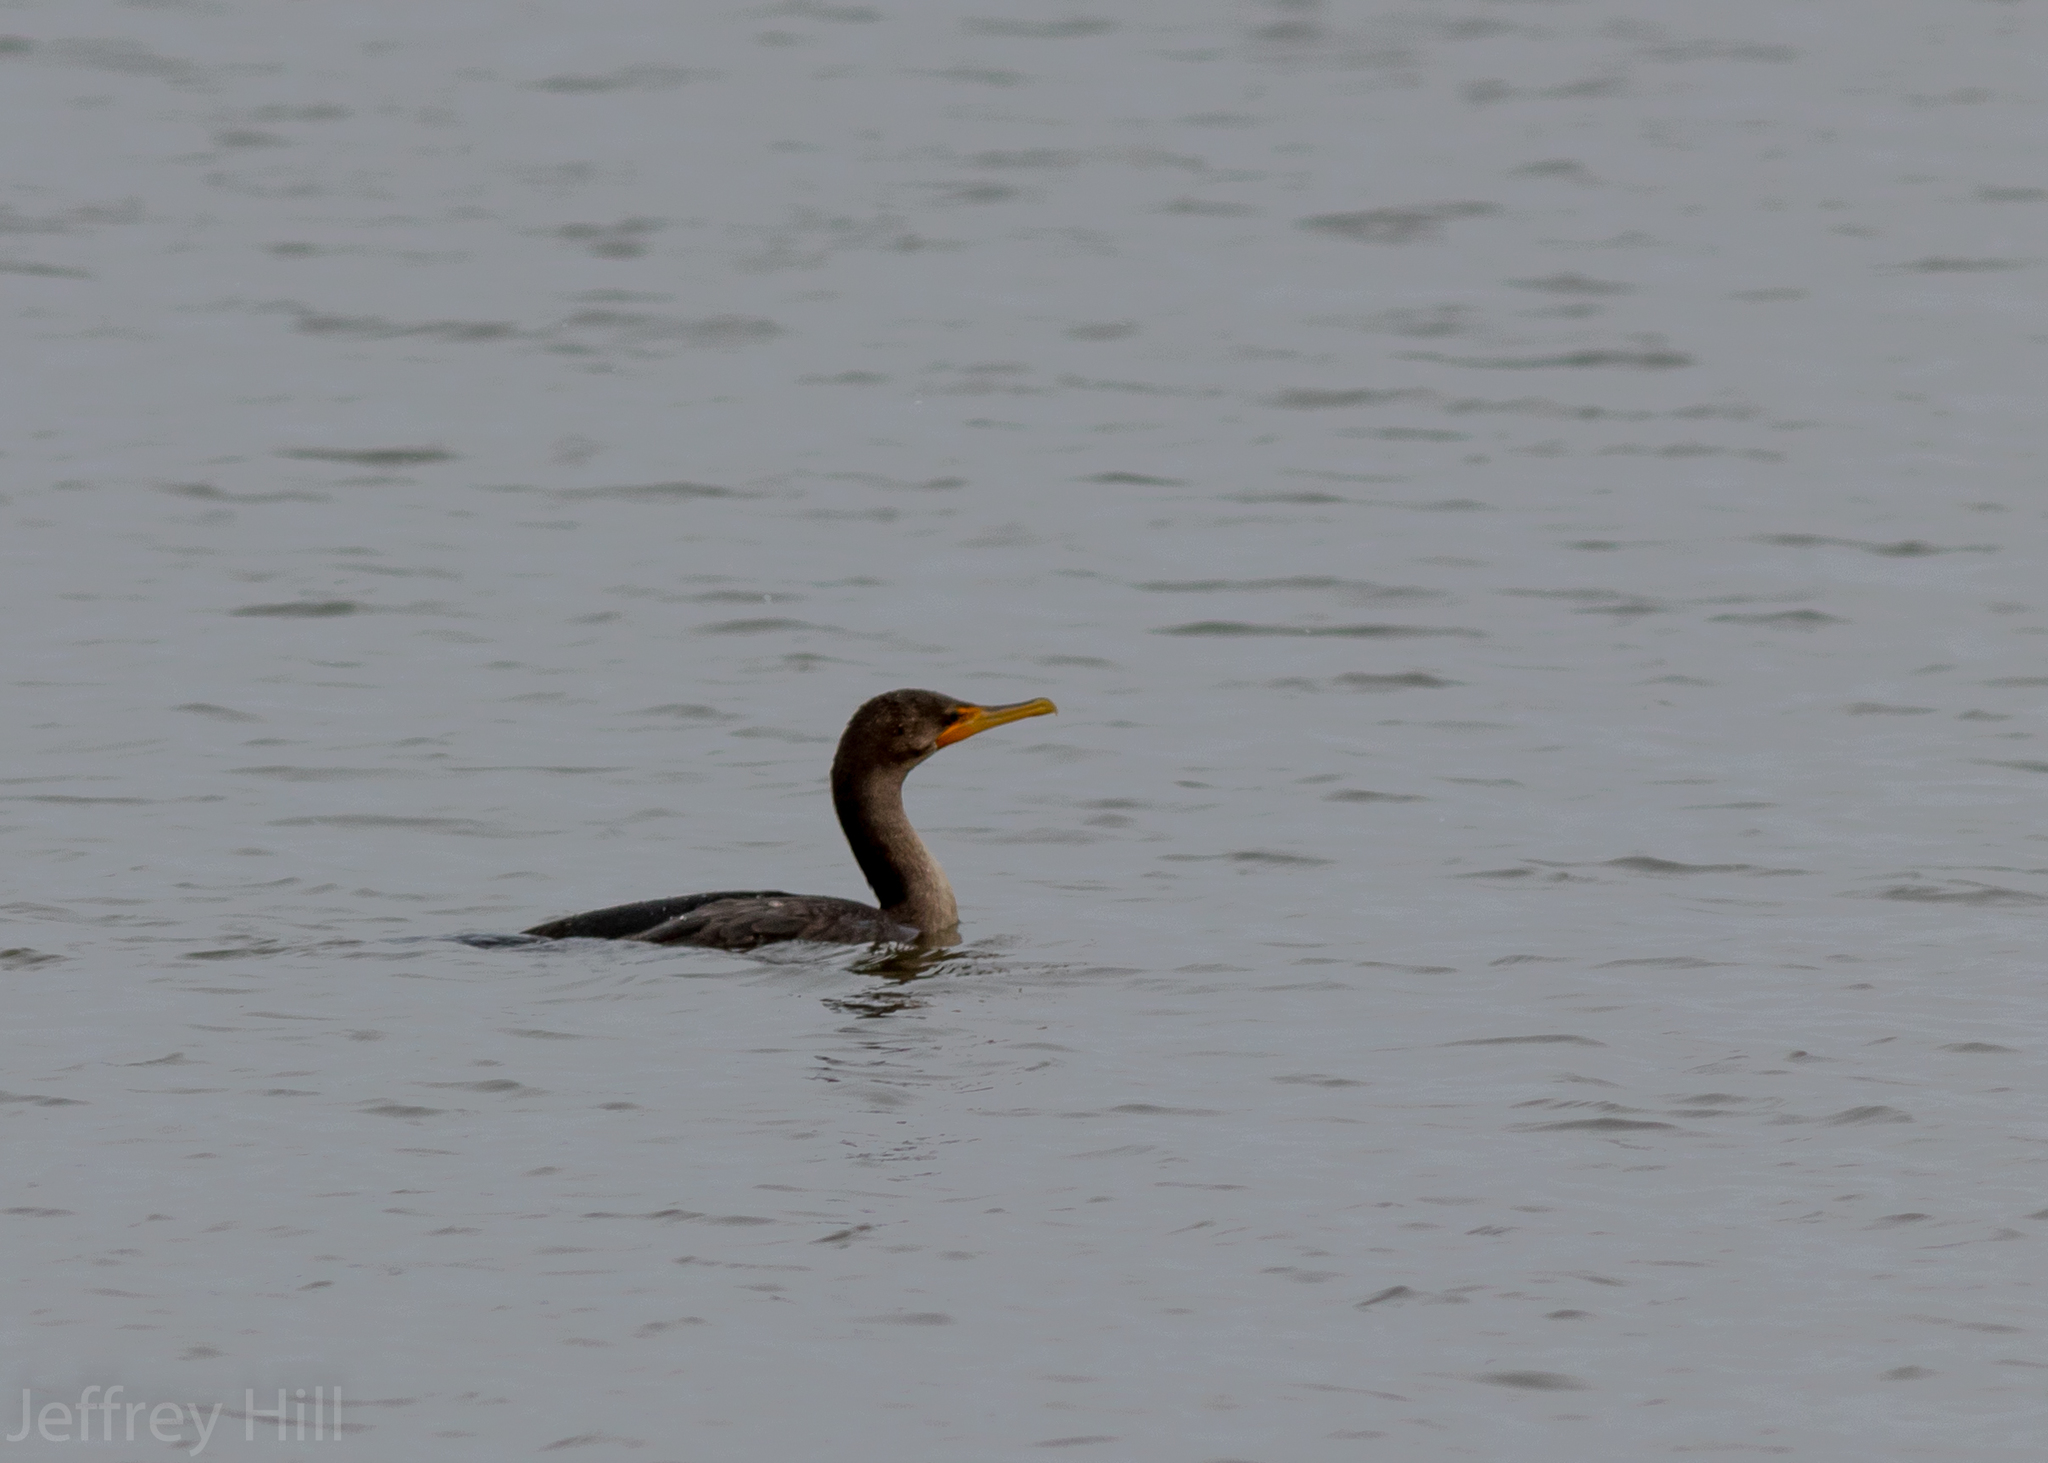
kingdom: Animalia
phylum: Chordata
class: Aves
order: Suliformes
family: Phalacrocoracidae
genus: Phalacrocorax
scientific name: Phalacrocorax auritus
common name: Double-crested cormorant
